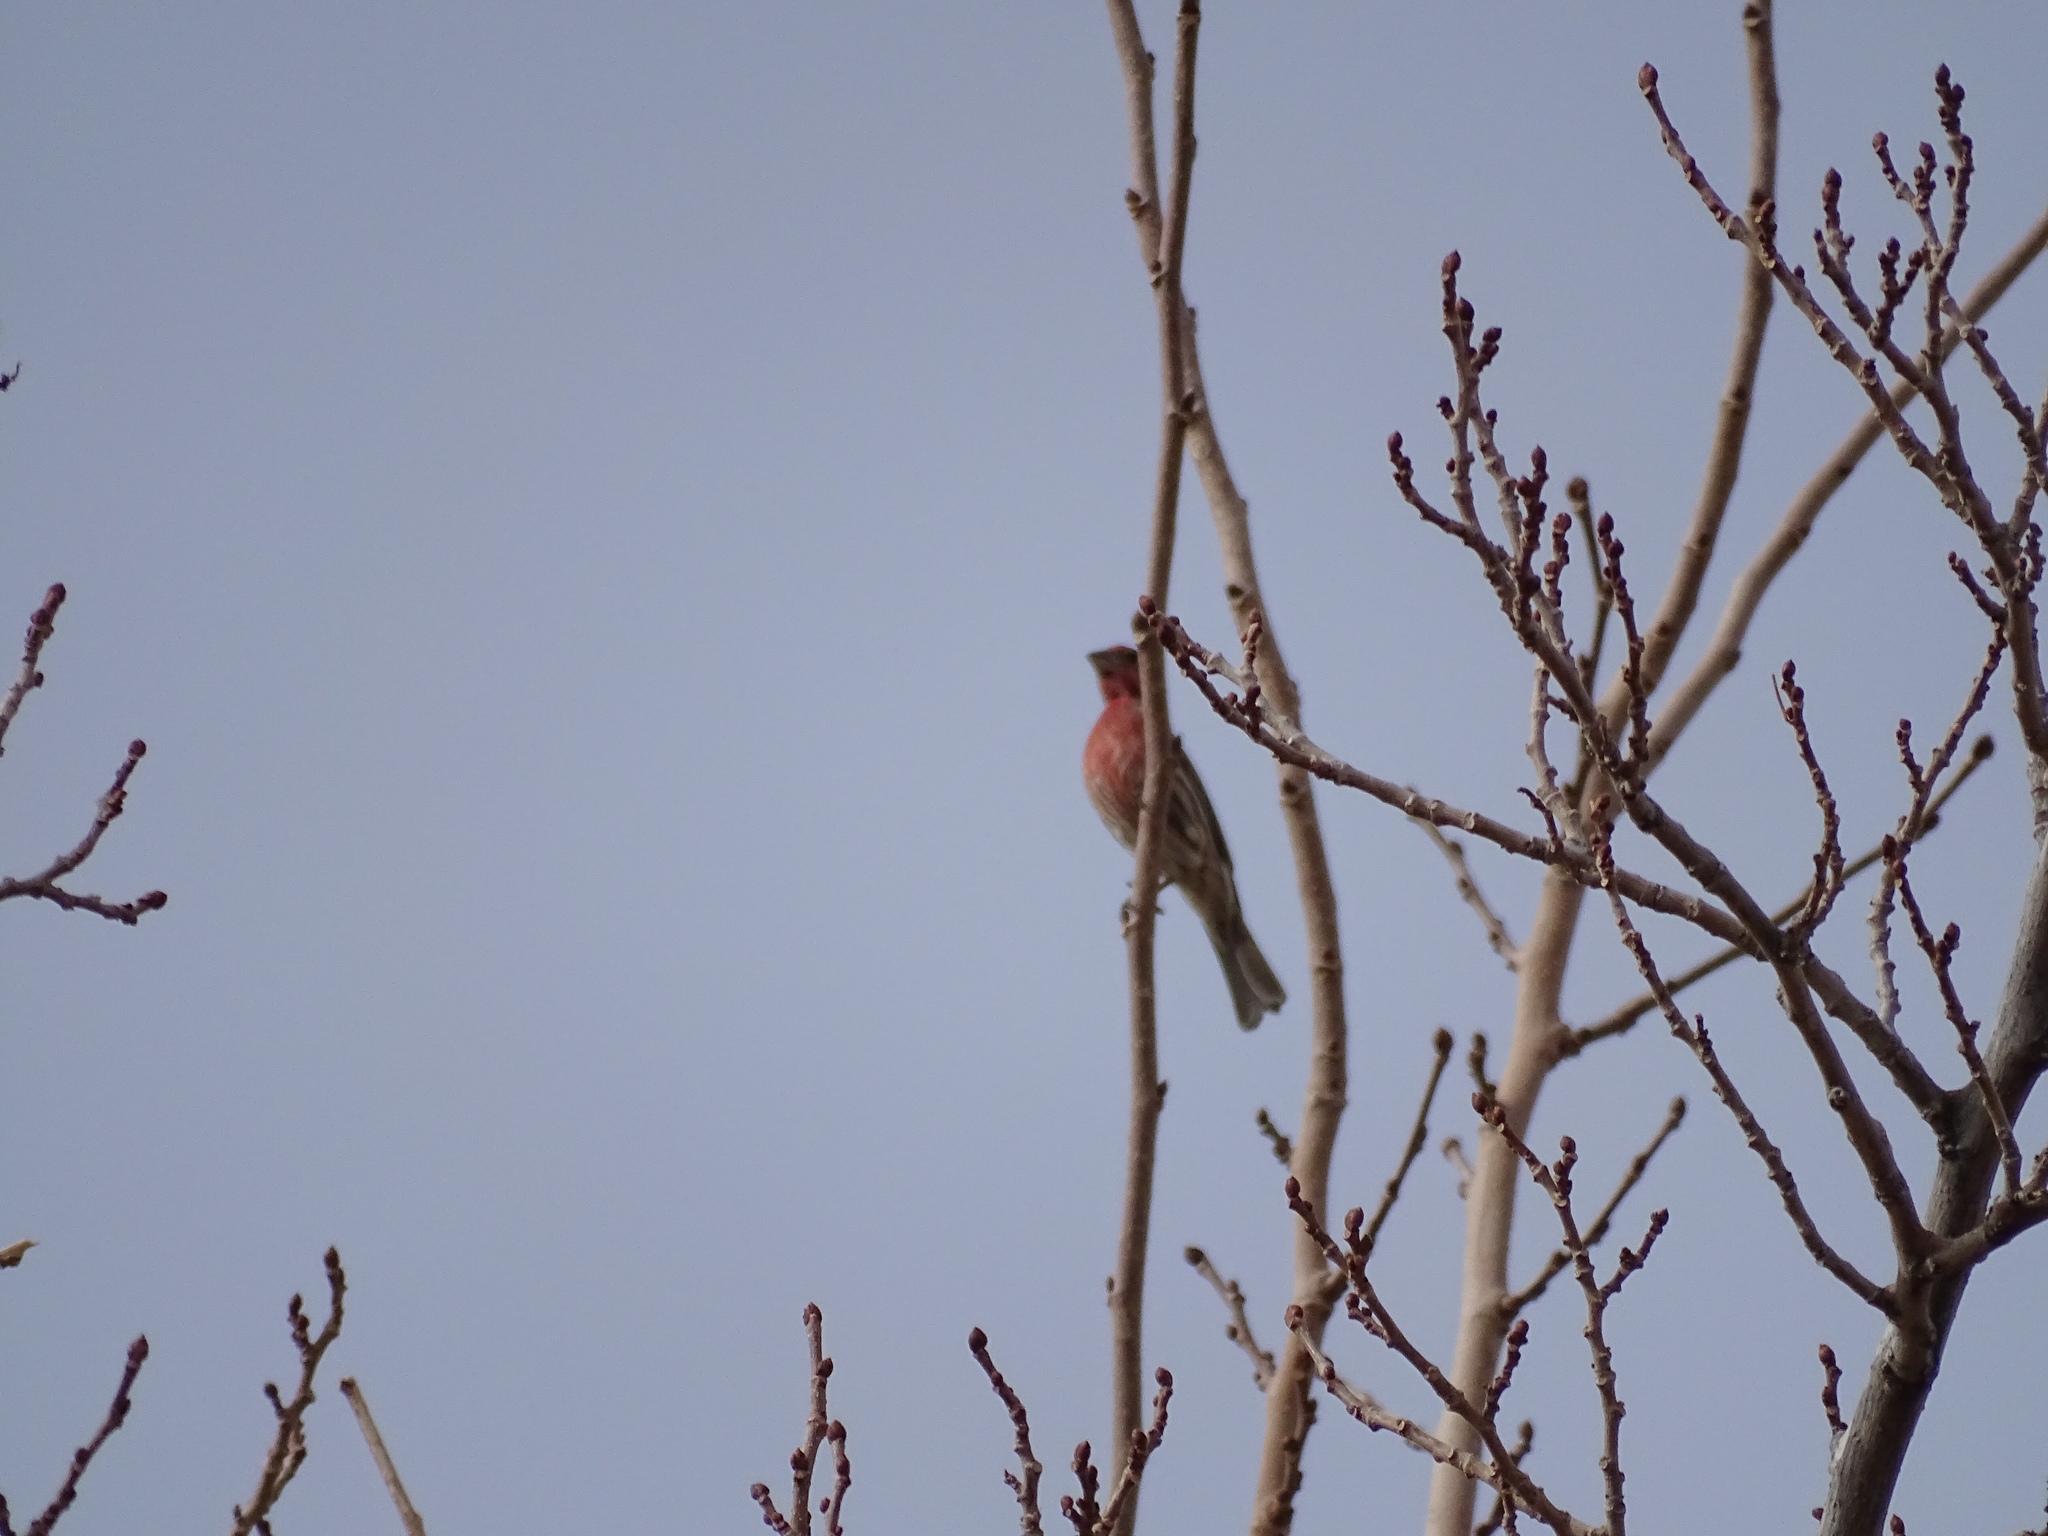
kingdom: Animalia
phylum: Chordata
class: Aves
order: Passeriformes
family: Fringillidae
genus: Haemorhous
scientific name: Haemorhous mexicanus
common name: House finch
